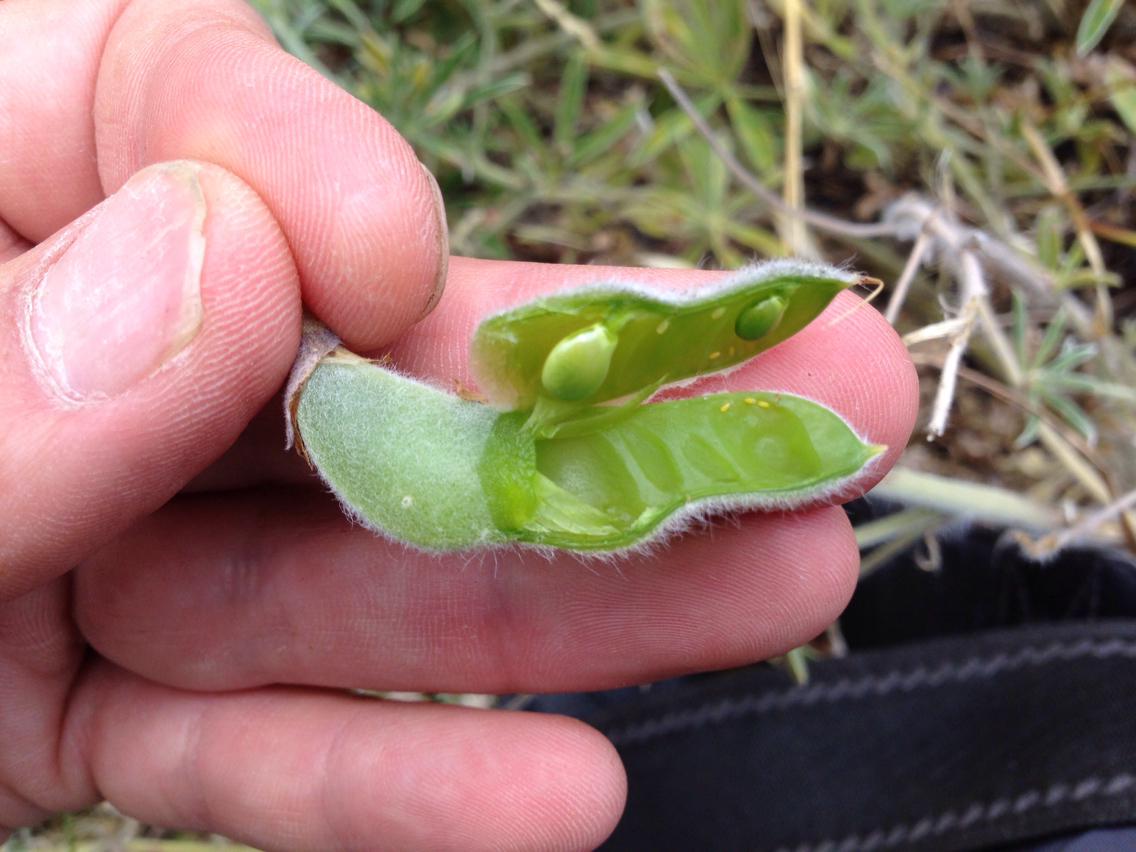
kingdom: Plantae
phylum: Tracheophyta
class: Magnoliopsida
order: Fabales
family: Fabaceae
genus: Lupinus
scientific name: Lupinus formosus
